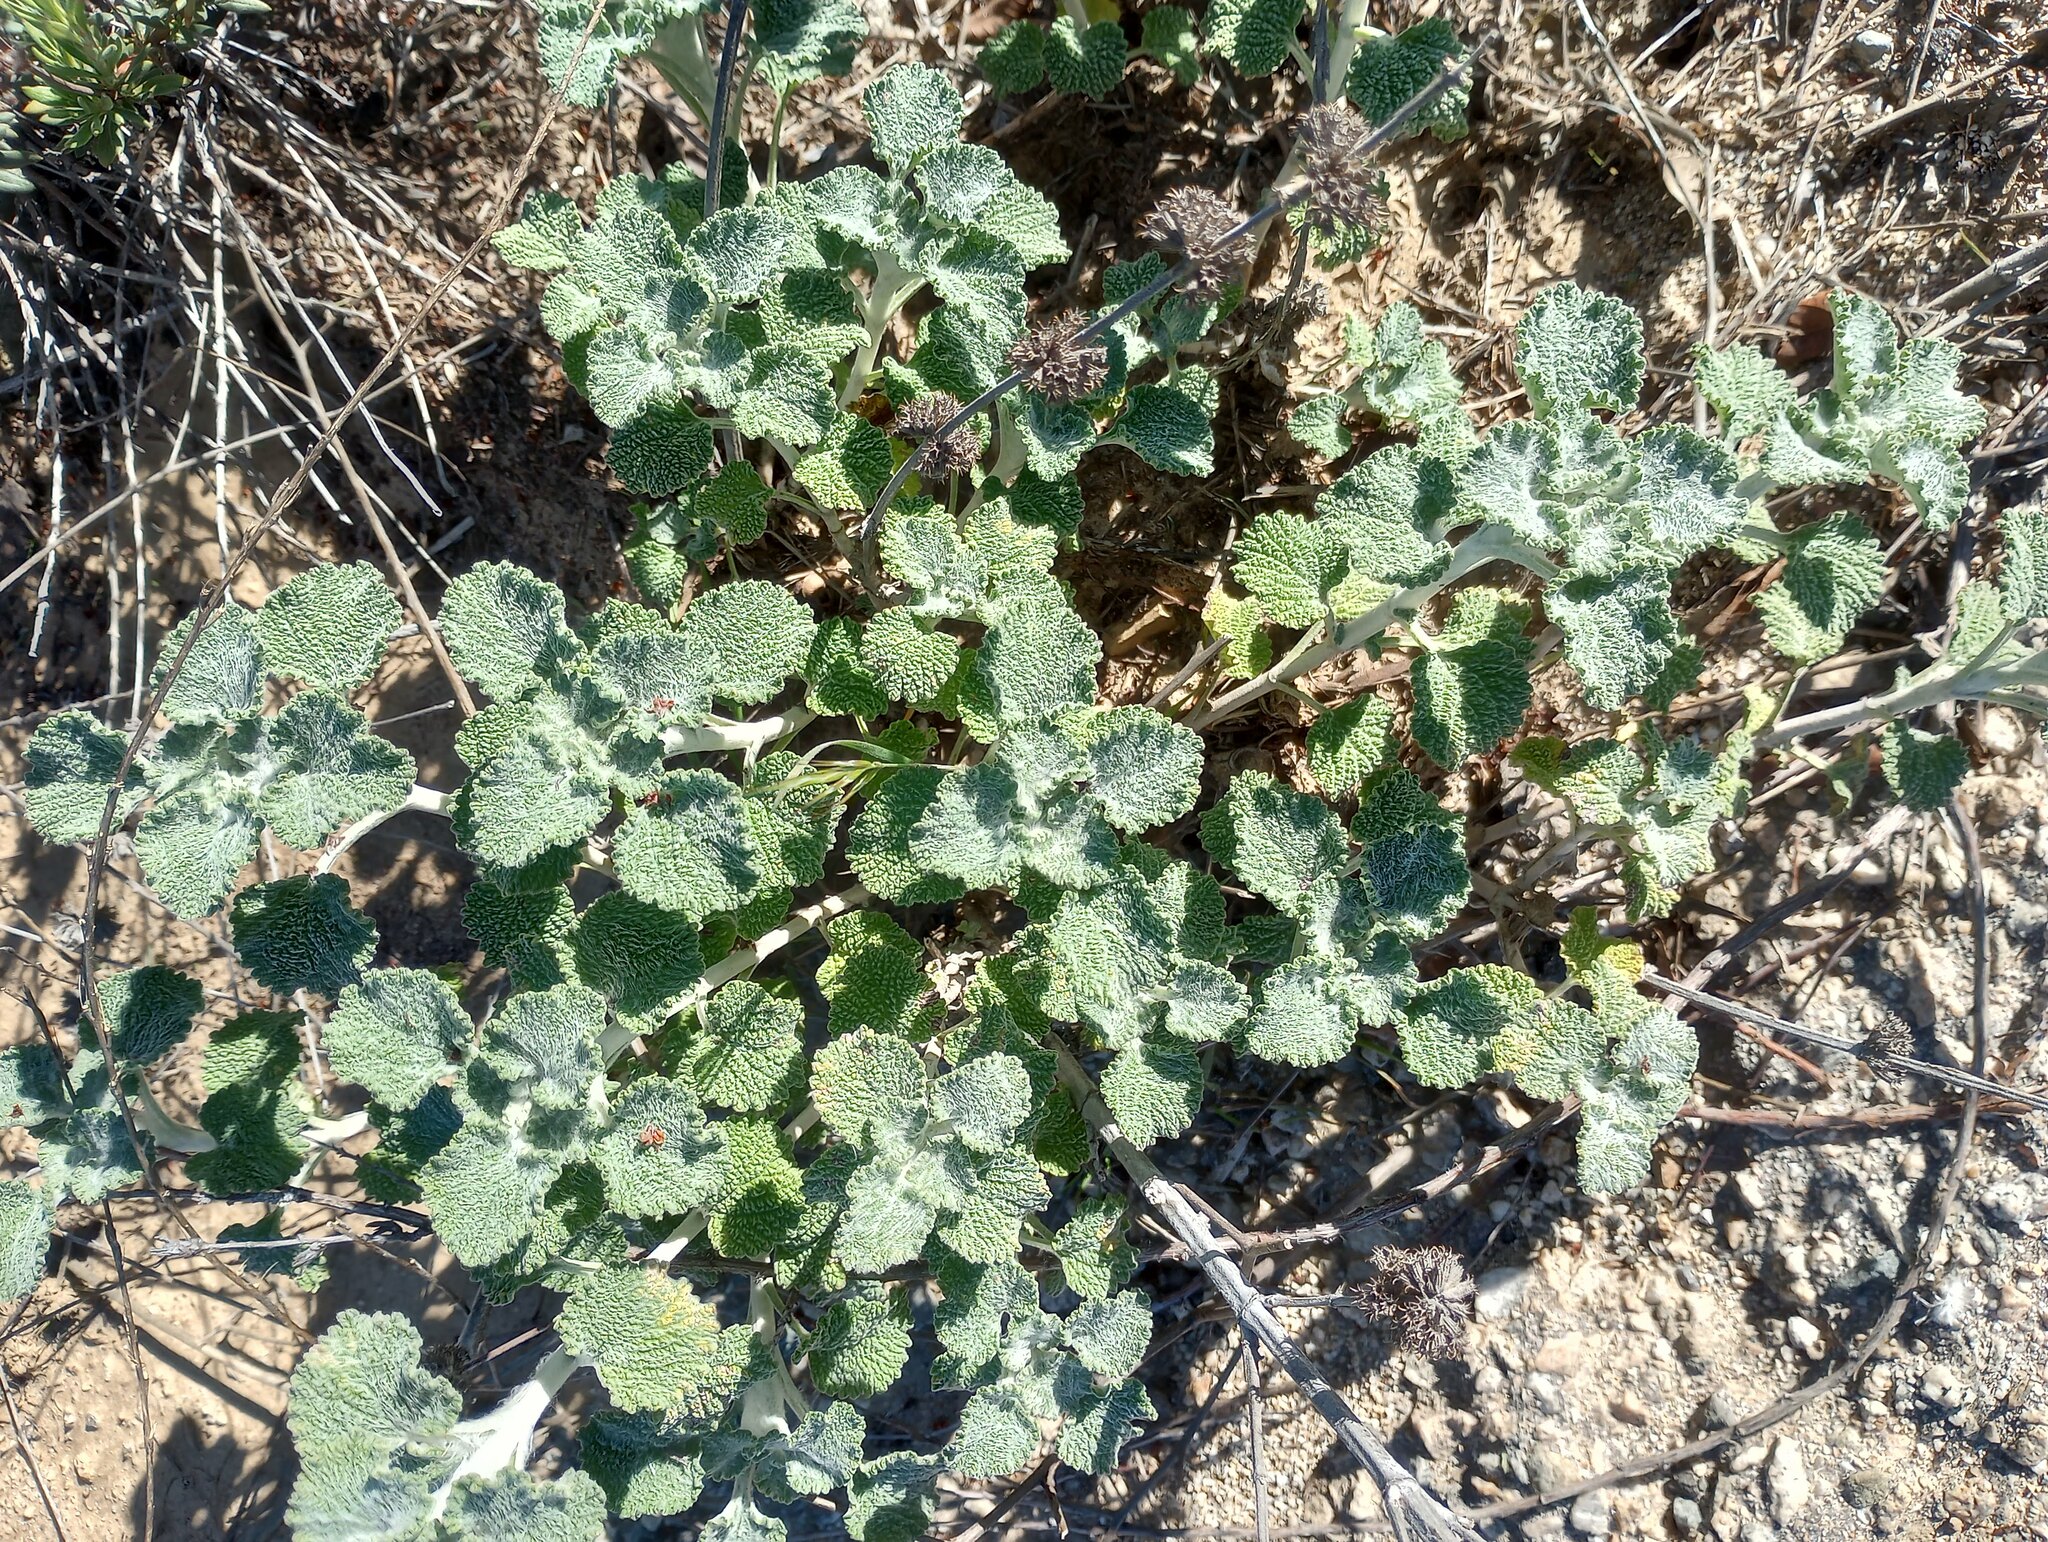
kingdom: Plantae
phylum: Tracheophyta
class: Magnoliopsida
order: Lamiales
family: Lamiaceae
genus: Marrubium
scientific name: Marrubium vulgare
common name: Horehound
